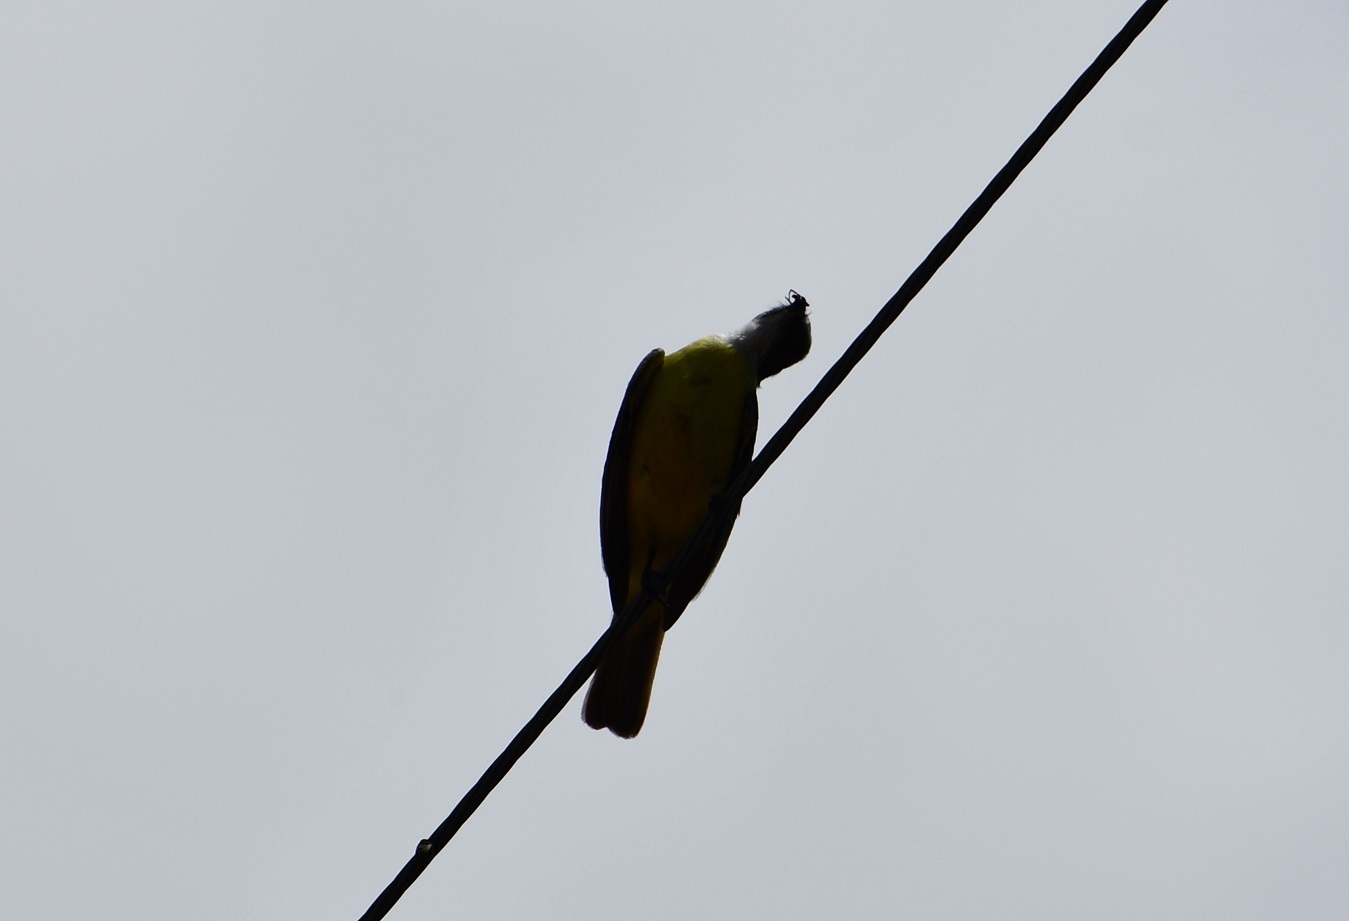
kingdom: Animalia
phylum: Chordata
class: Aves
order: Passeriformes
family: Tyrannidae
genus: Myiozetetes
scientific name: Myiozetetes similis
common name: Social flycatcher
